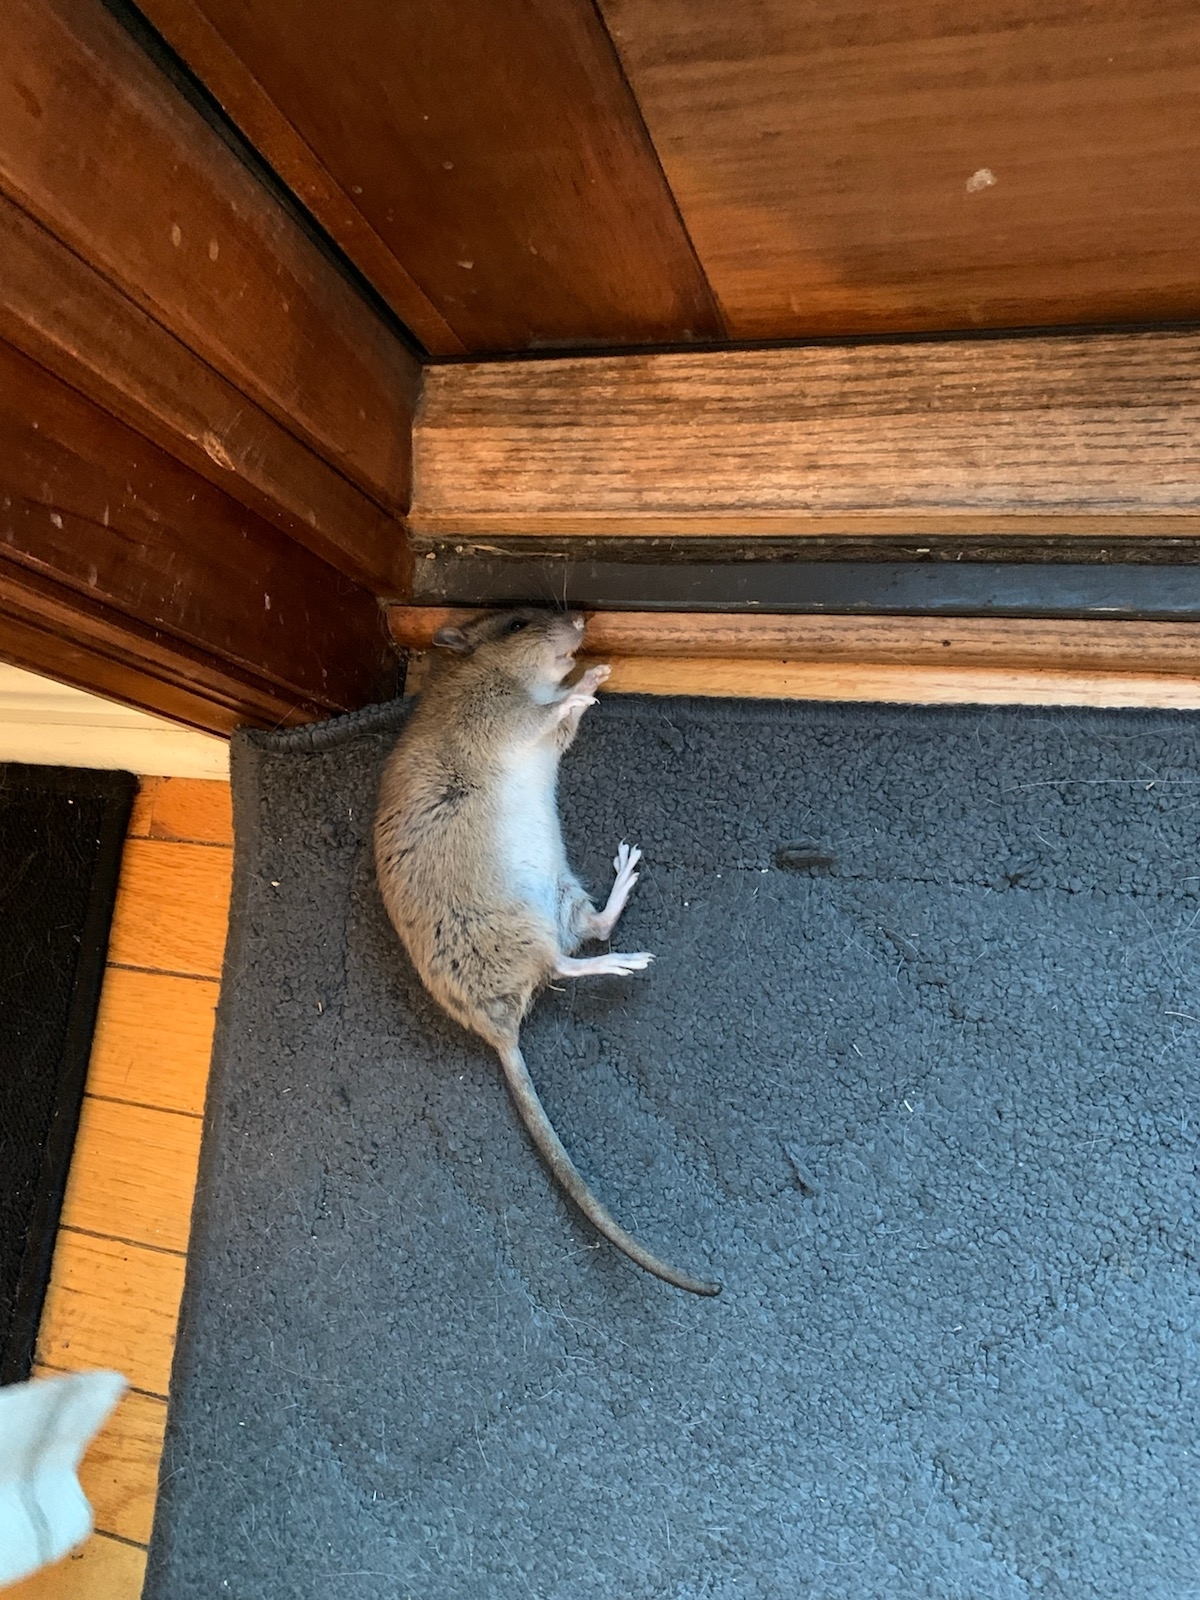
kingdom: Animalia
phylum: Chordata
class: Mammalia
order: Rodentia
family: Muridae
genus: Rattus
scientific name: Rattus norvegicus
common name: Brown rat
